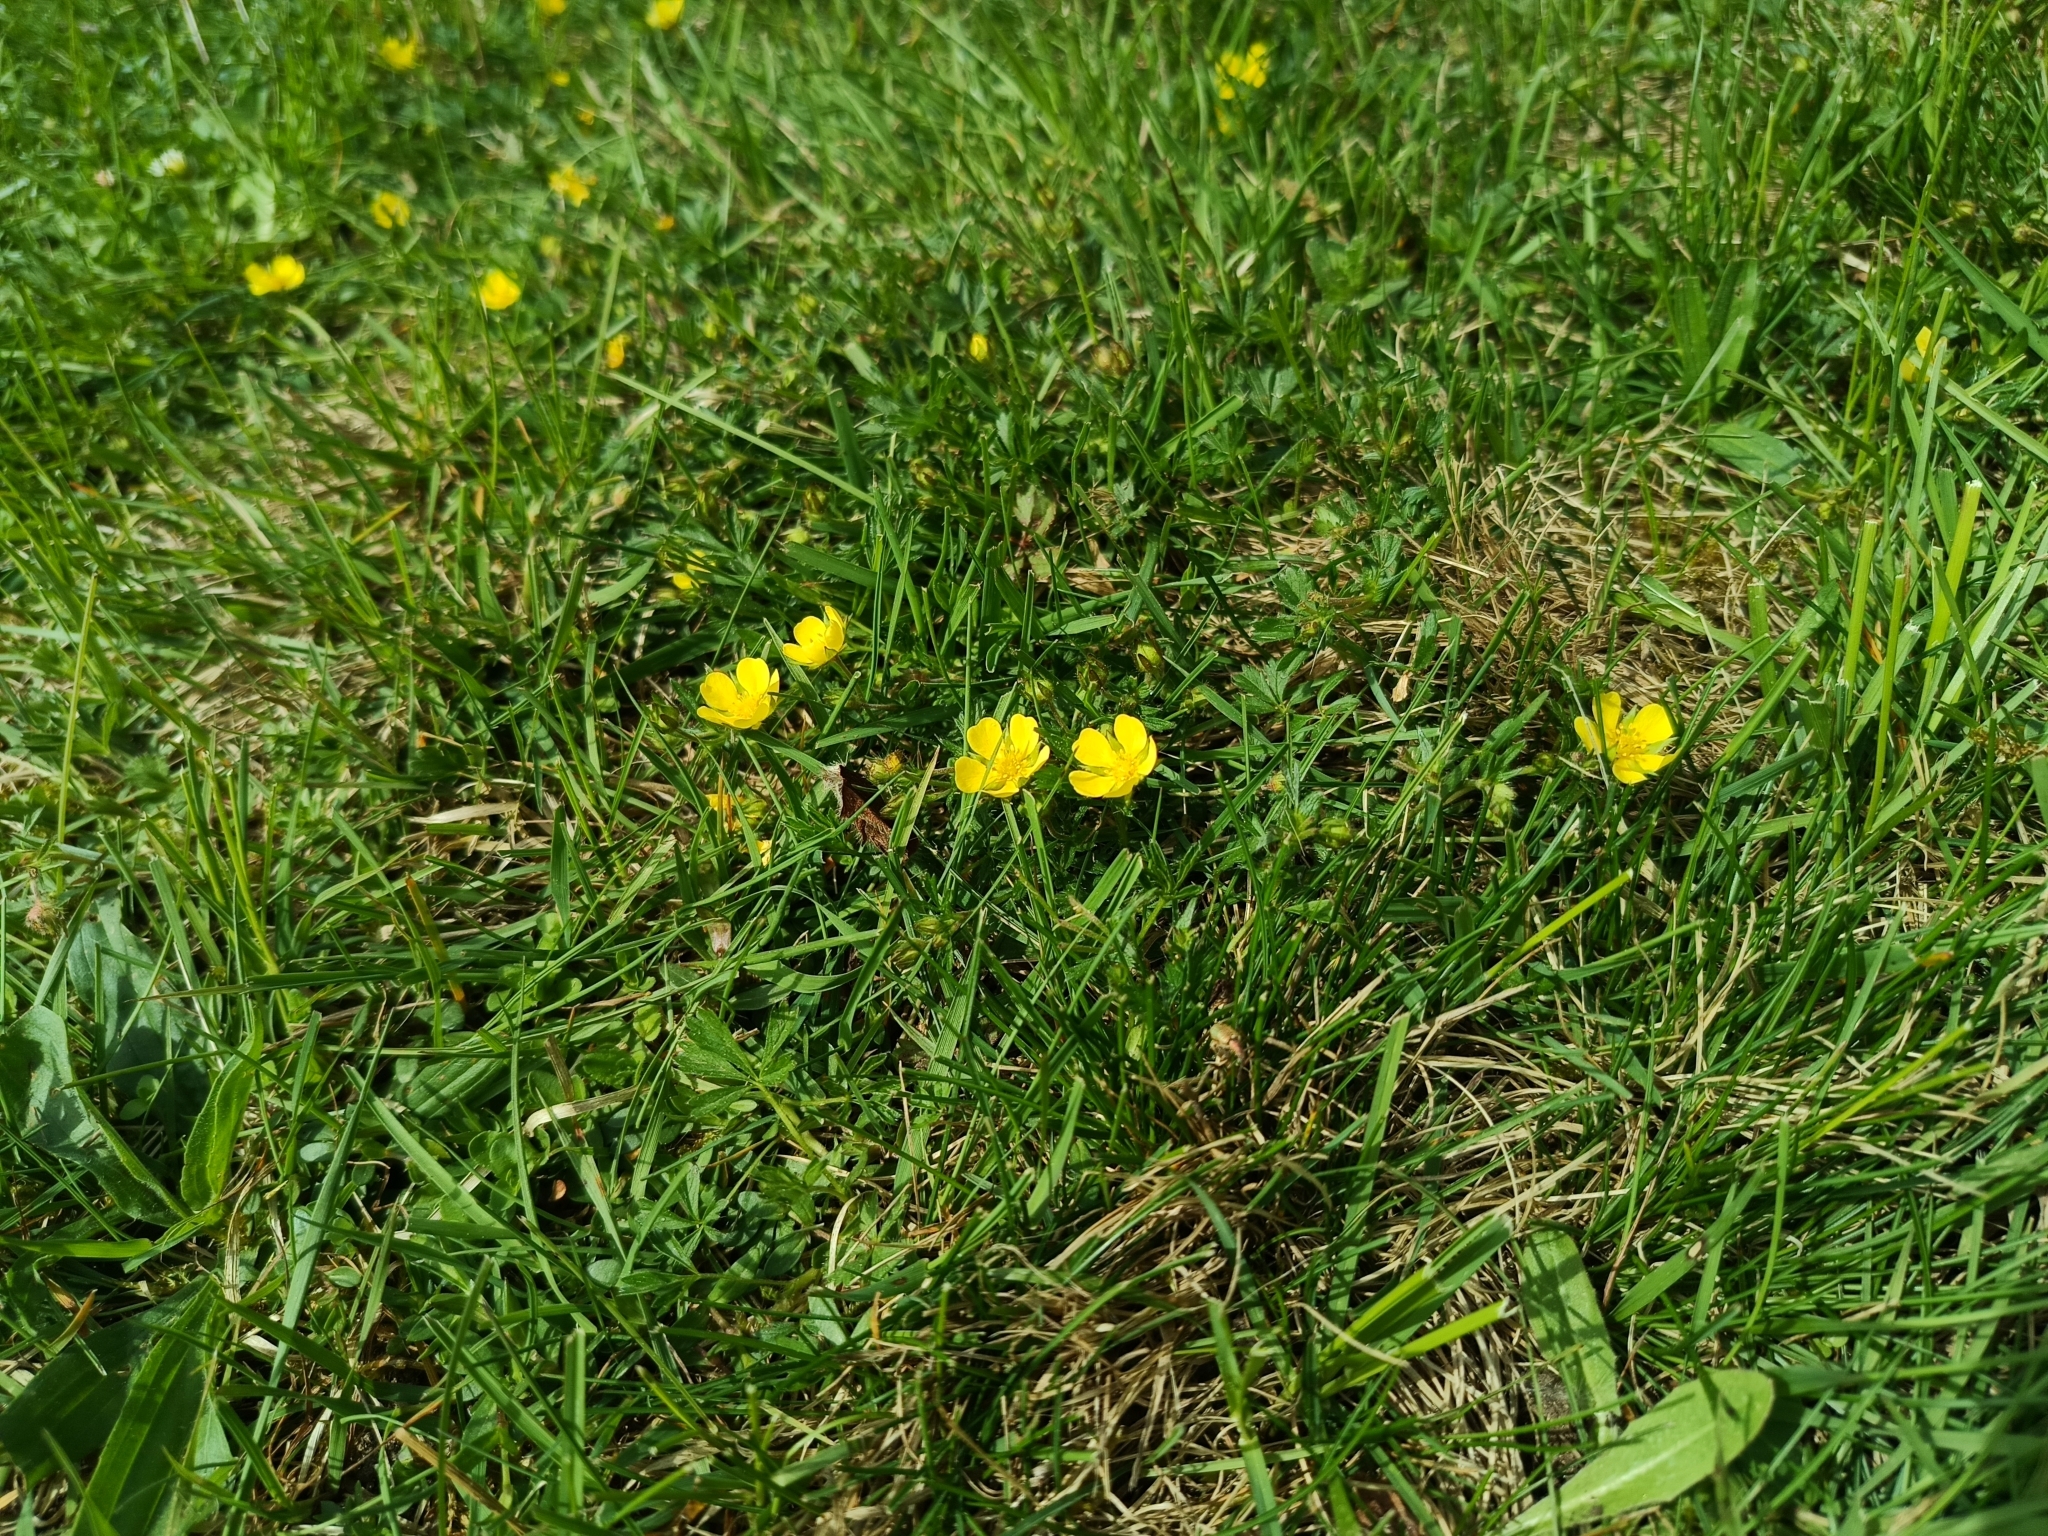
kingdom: Plantae
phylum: Tracheophyta
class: Magnoliopsida
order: Rosales
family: Rosaceae
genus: Potentilla
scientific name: Potentilla verna
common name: Spring cinquefoil
